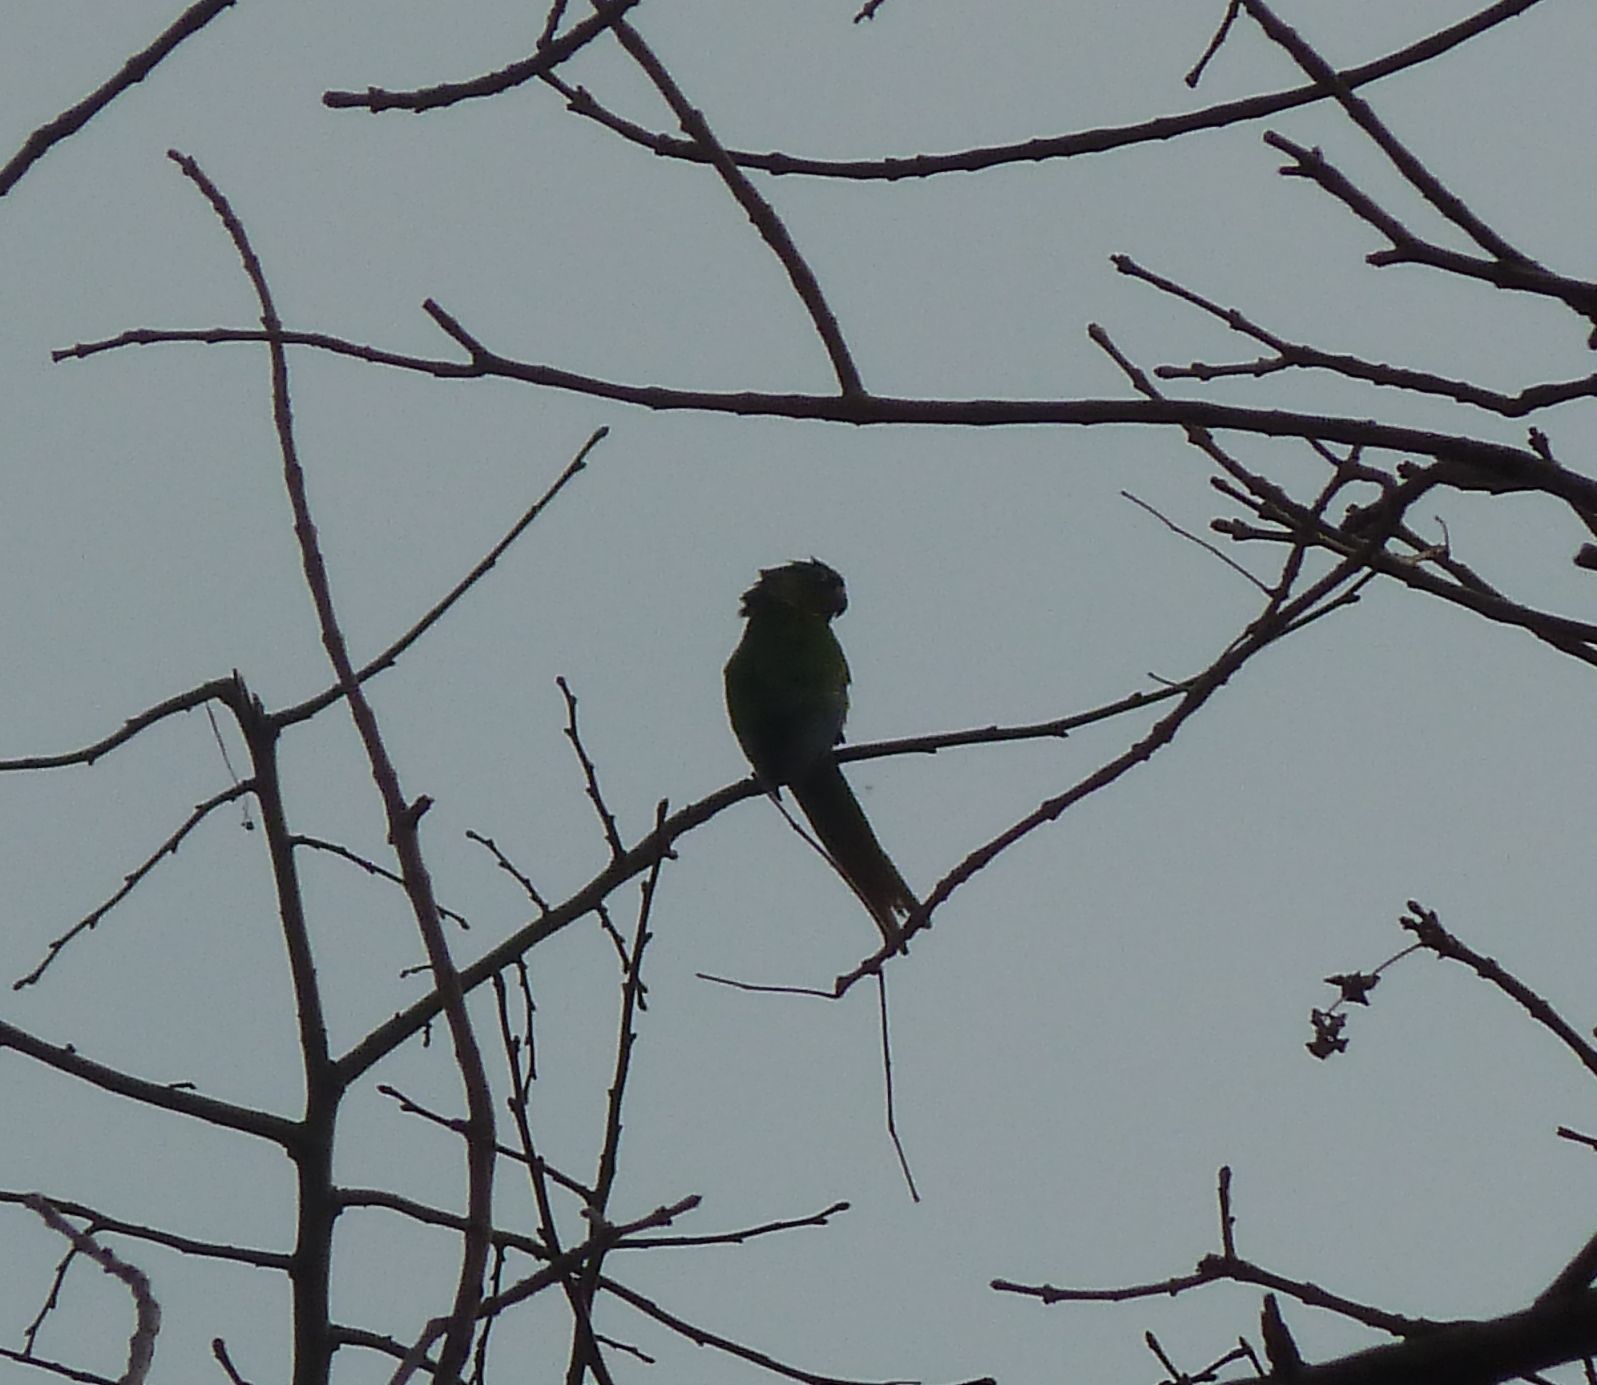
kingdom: Animalia
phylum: Chordata
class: Aves
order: Psittaciformes
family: Psittacidae
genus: Pyrrhura
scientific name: Pyrrhura frontalis
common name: Maroon-bellied parakeet
